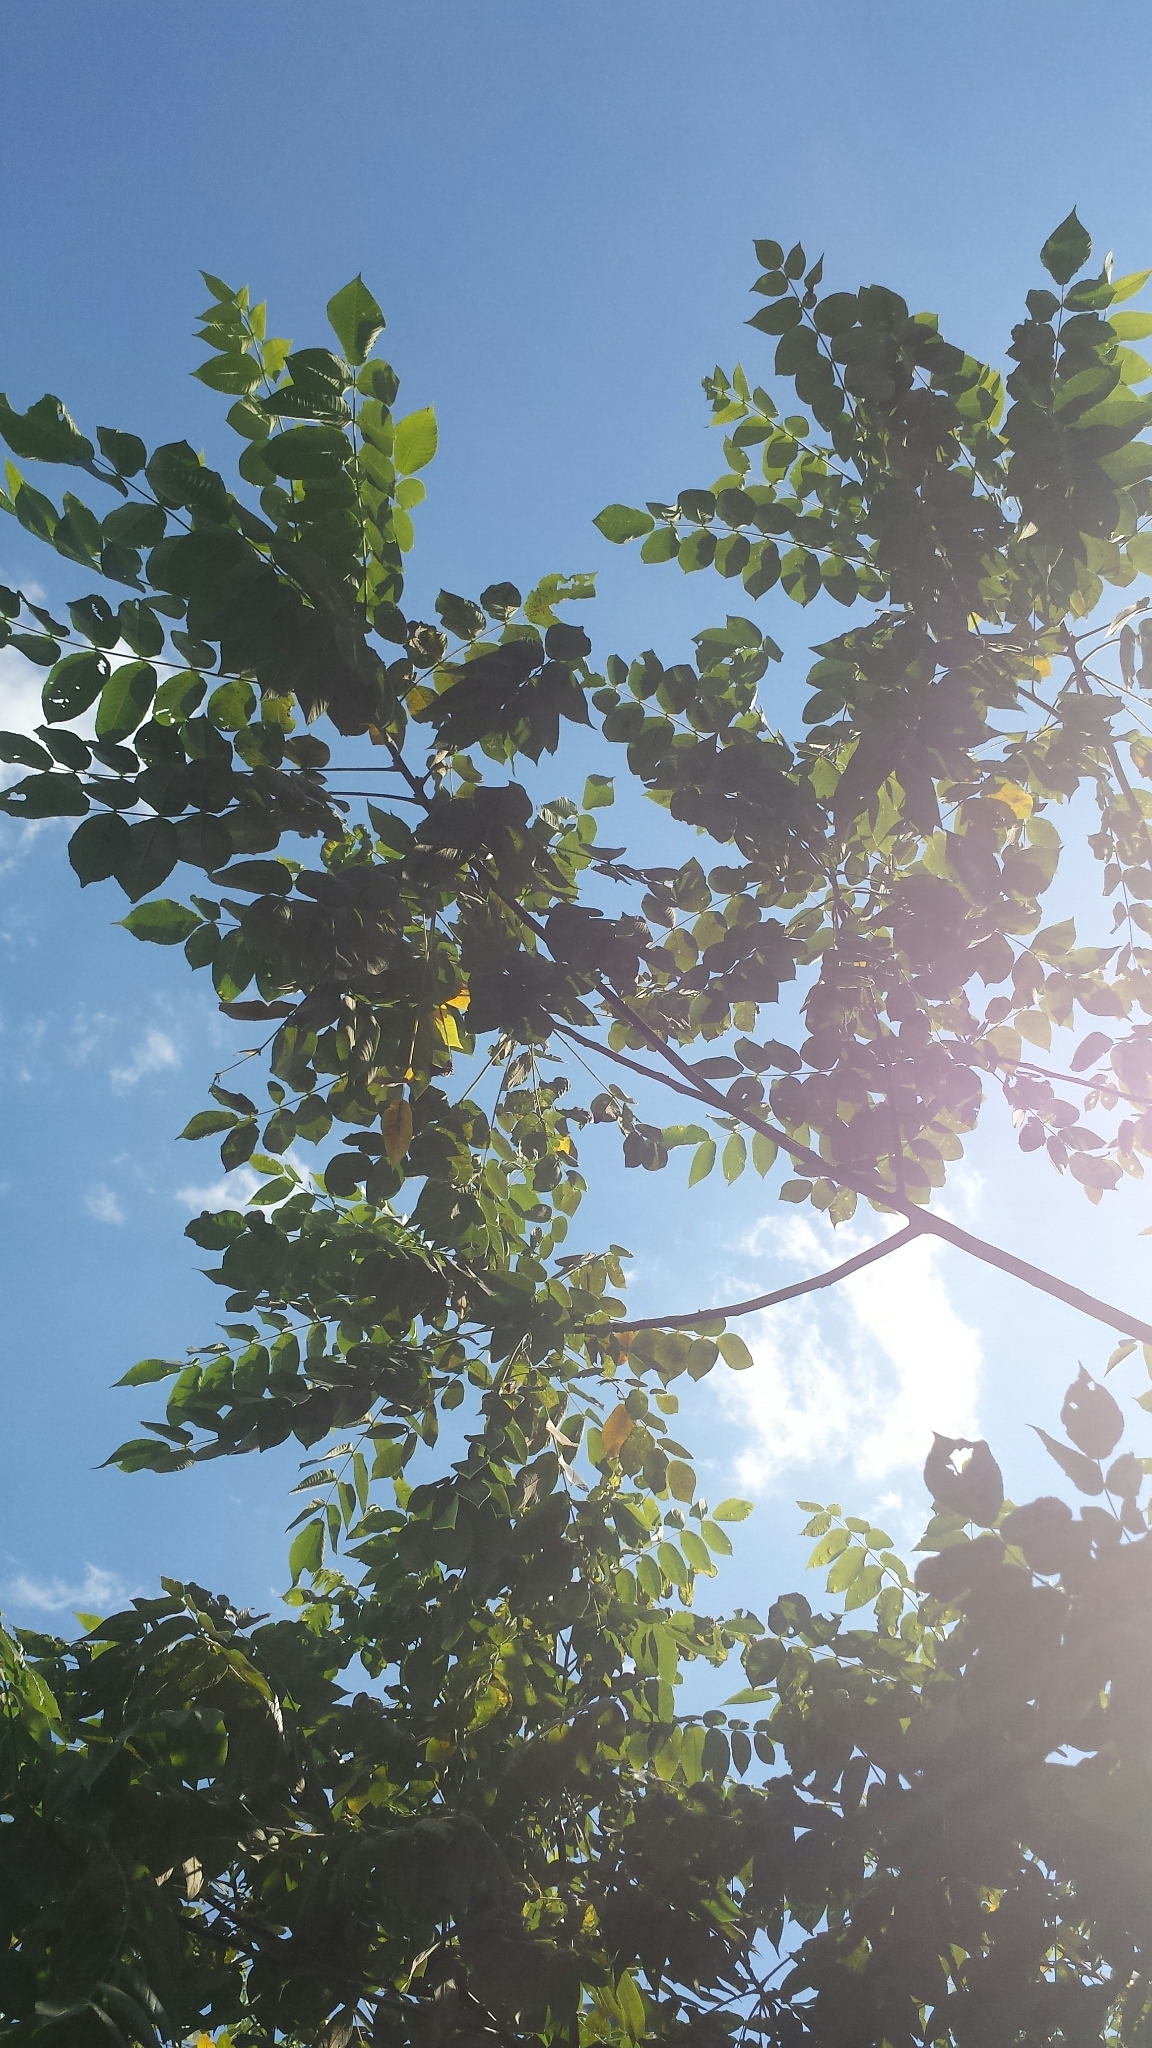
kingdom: Plantae
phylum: Tracheophyta
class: Magnoliopsida
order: Fagales
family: Juglandaceae
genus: Juglans
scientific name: Juglans cinerea
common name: Butternut
